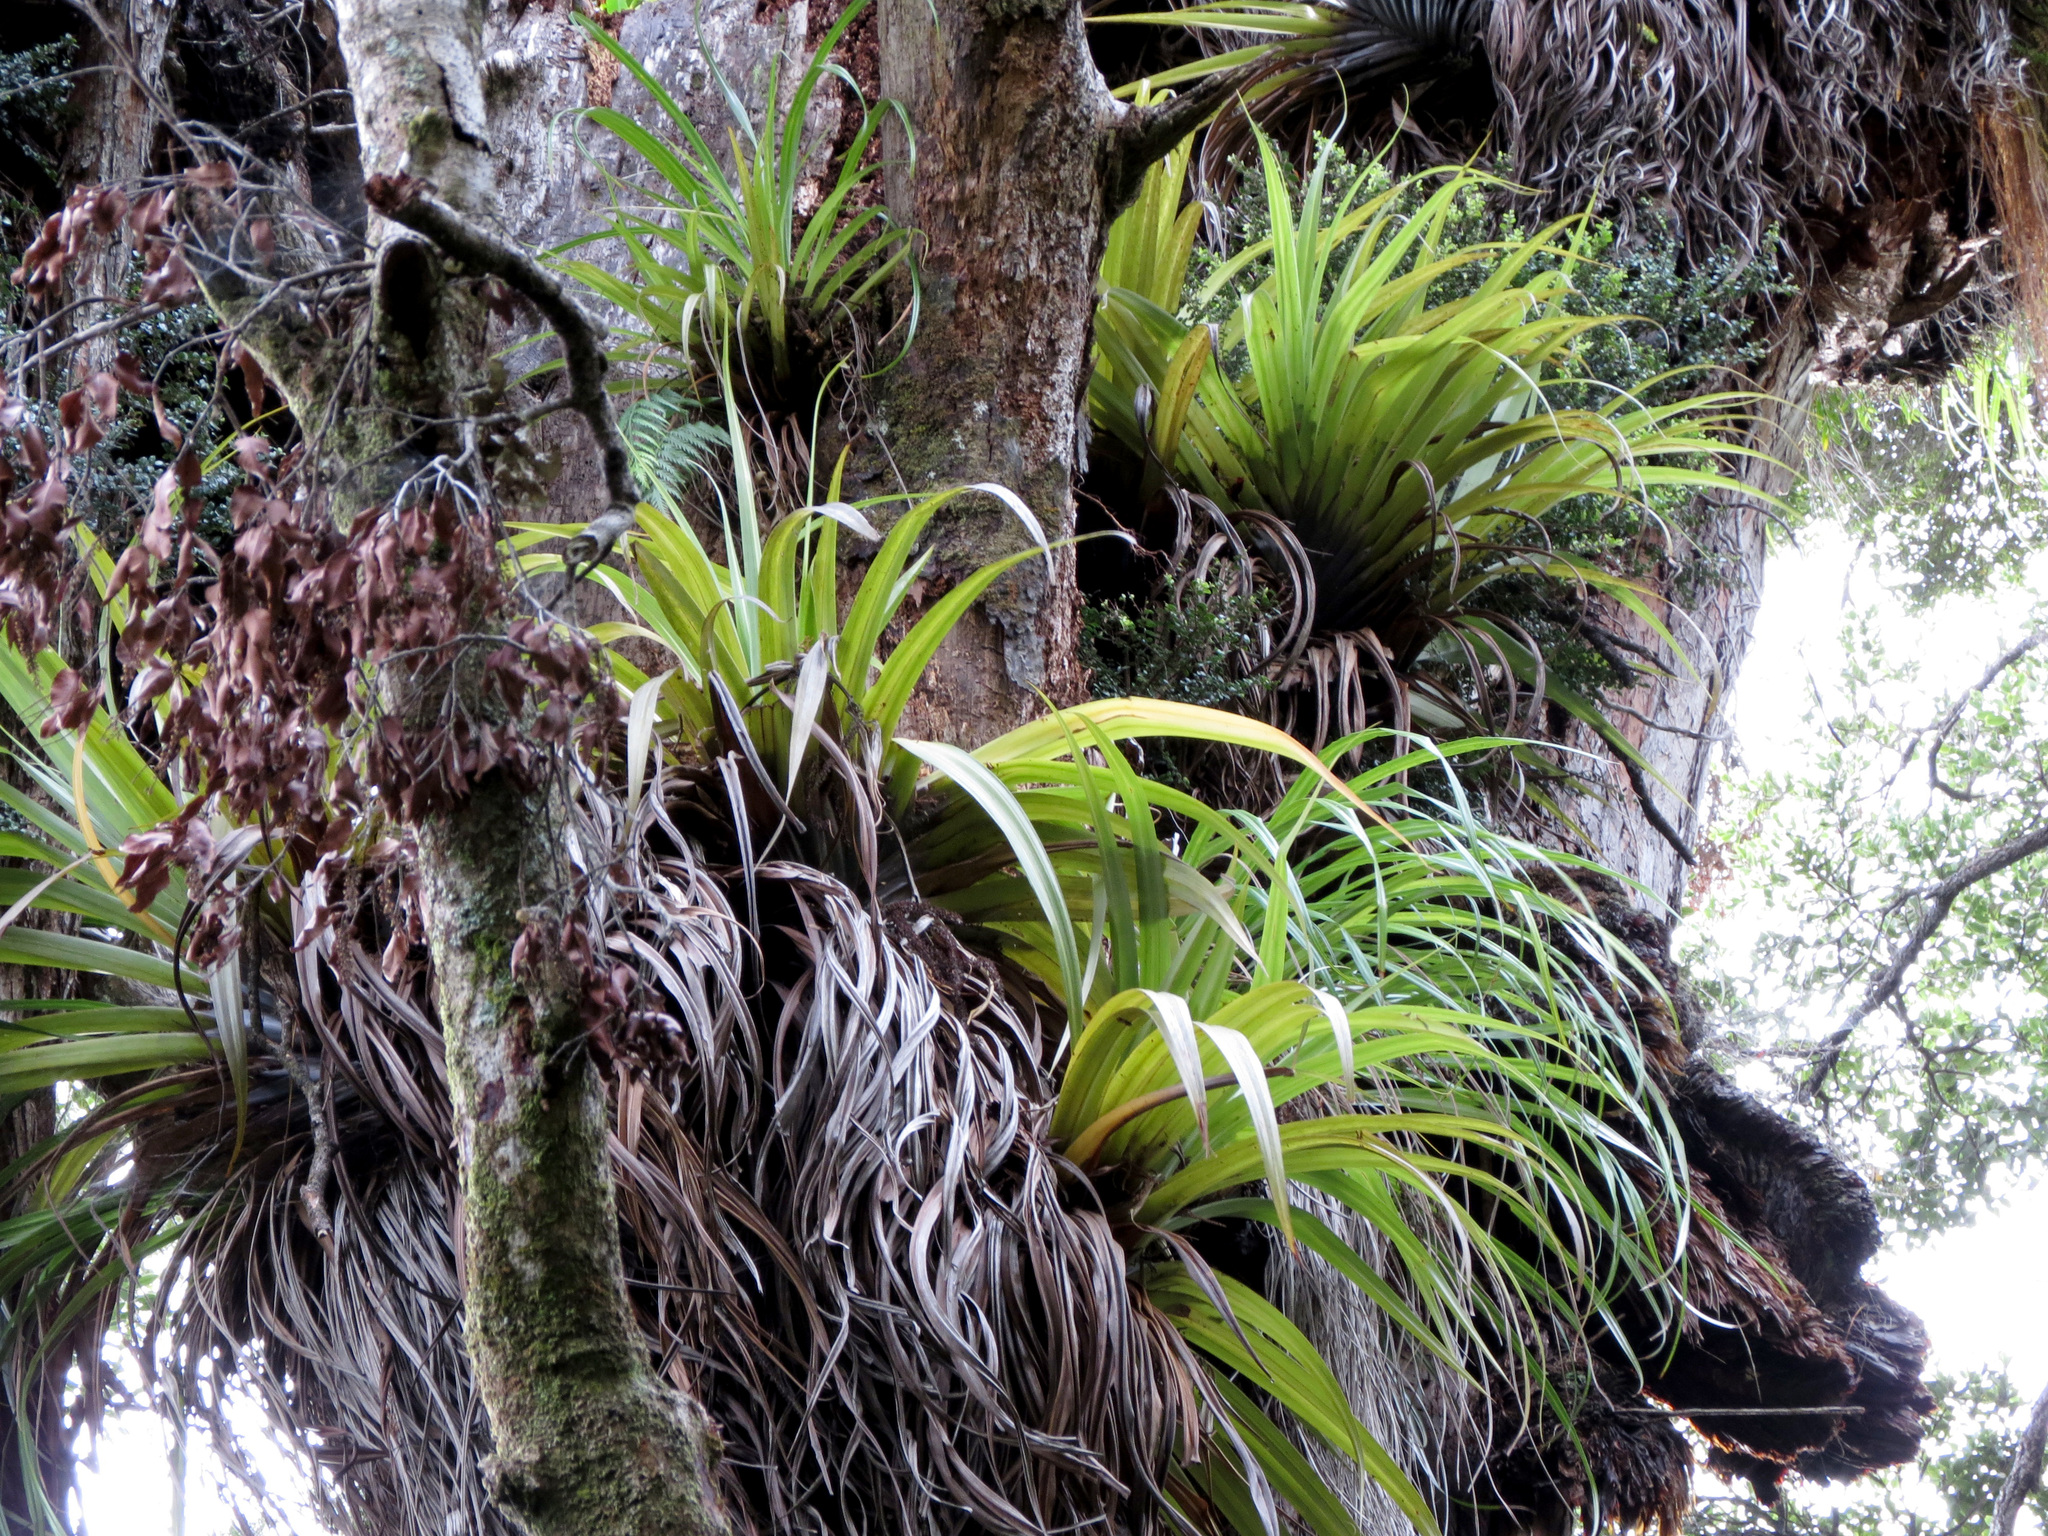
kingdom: Plantae
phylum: Tracheophyta
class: Liliopsida
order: Asparagales
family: Asteliaceae
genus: Astelia
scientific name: Astelia hastata
